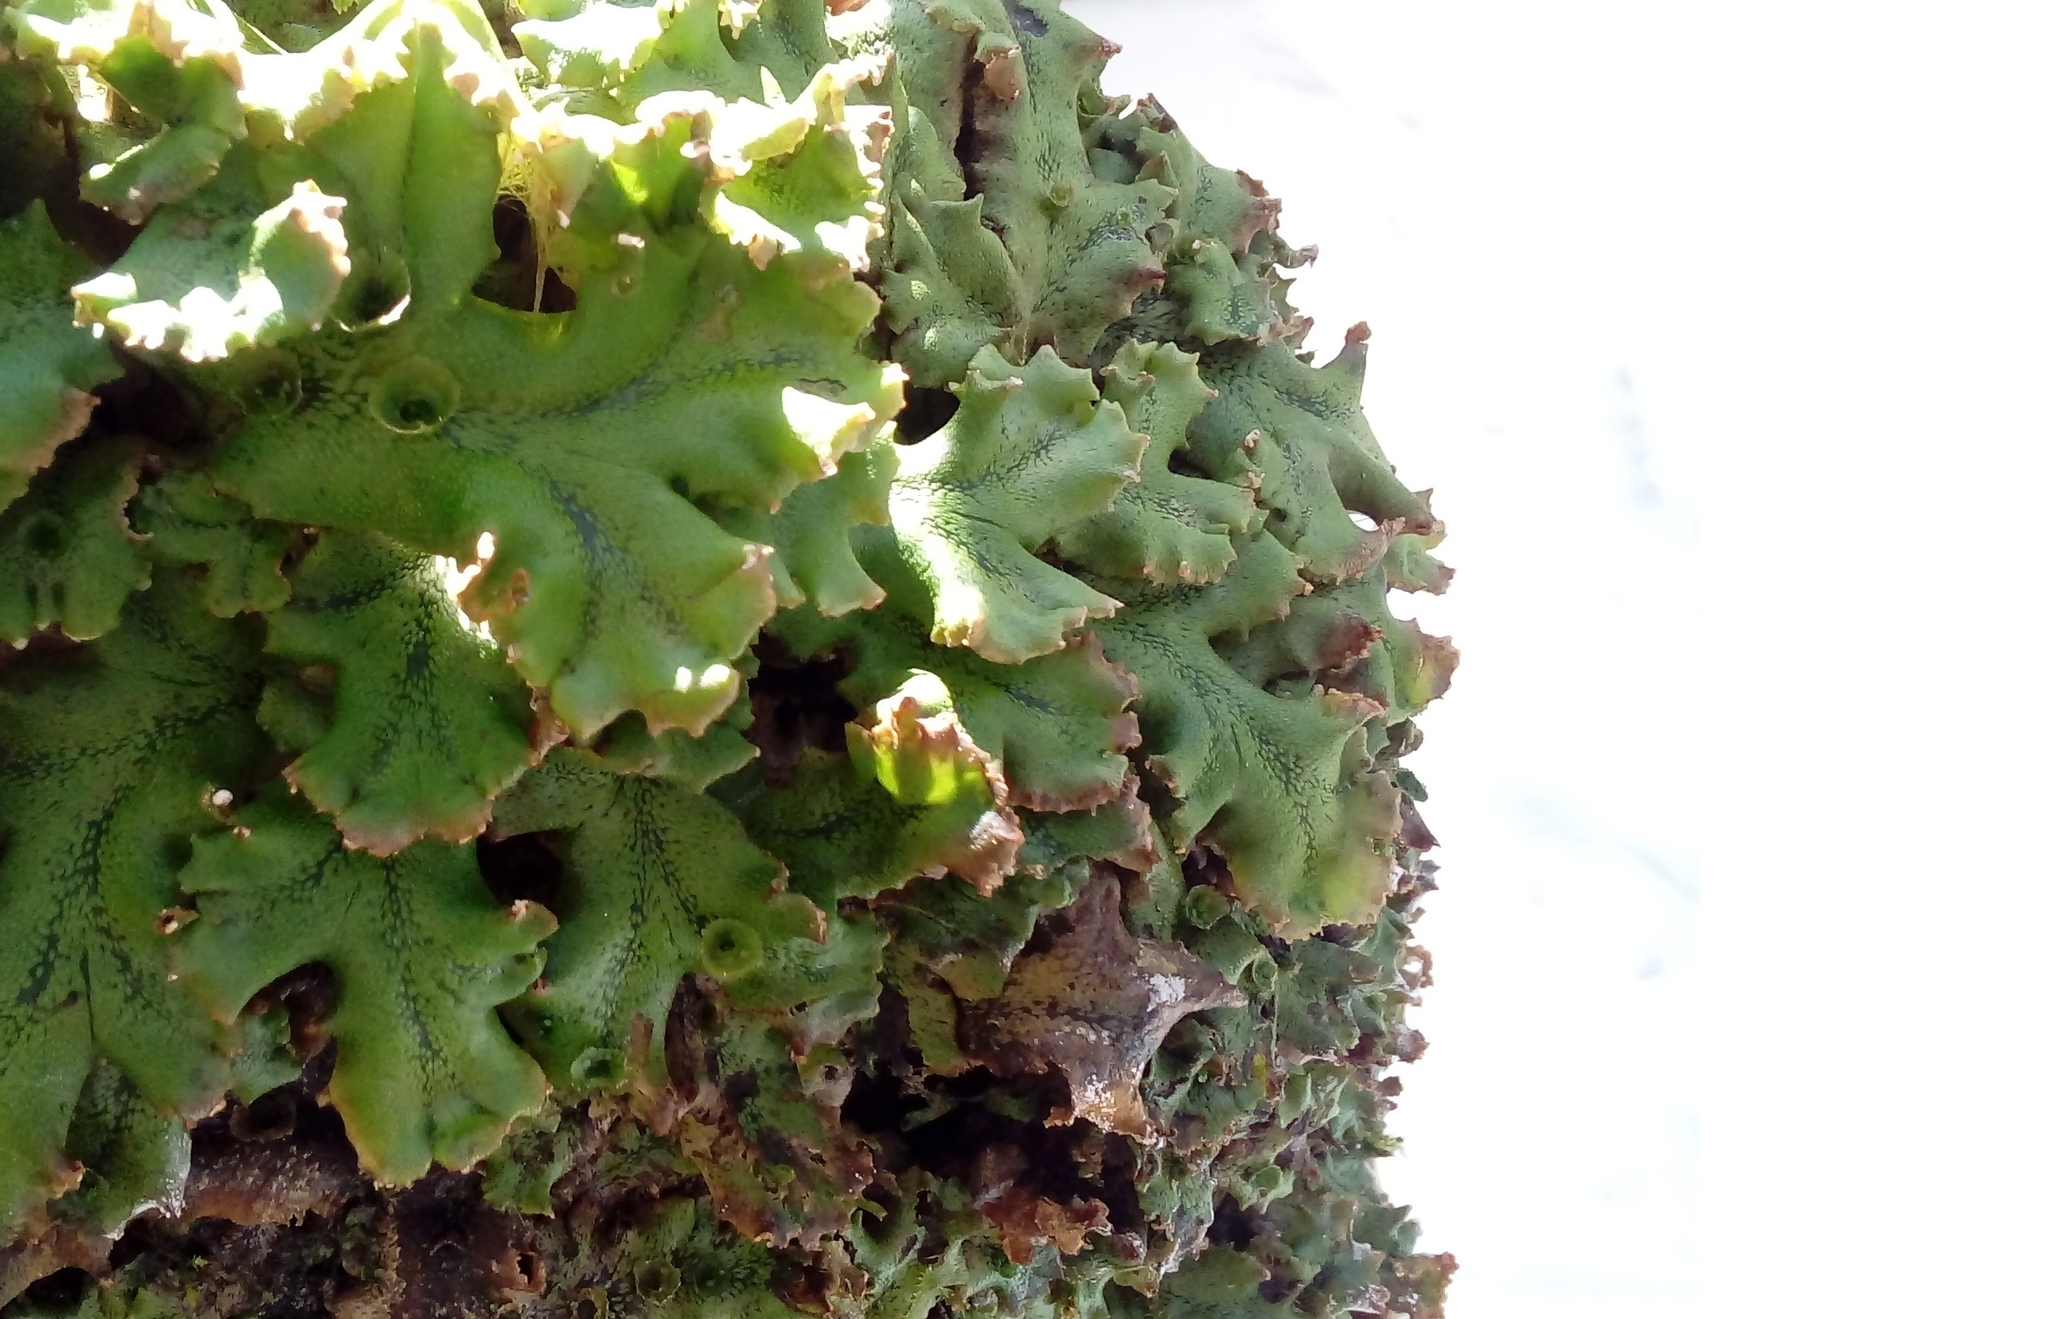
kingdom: Plantae
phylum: Marchantiophyta
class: Marchantiopsida
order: Marchantiales
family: Marchantiaceae
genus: Marchantia
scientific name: Marchantia polymorpha
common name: Common liverwort
